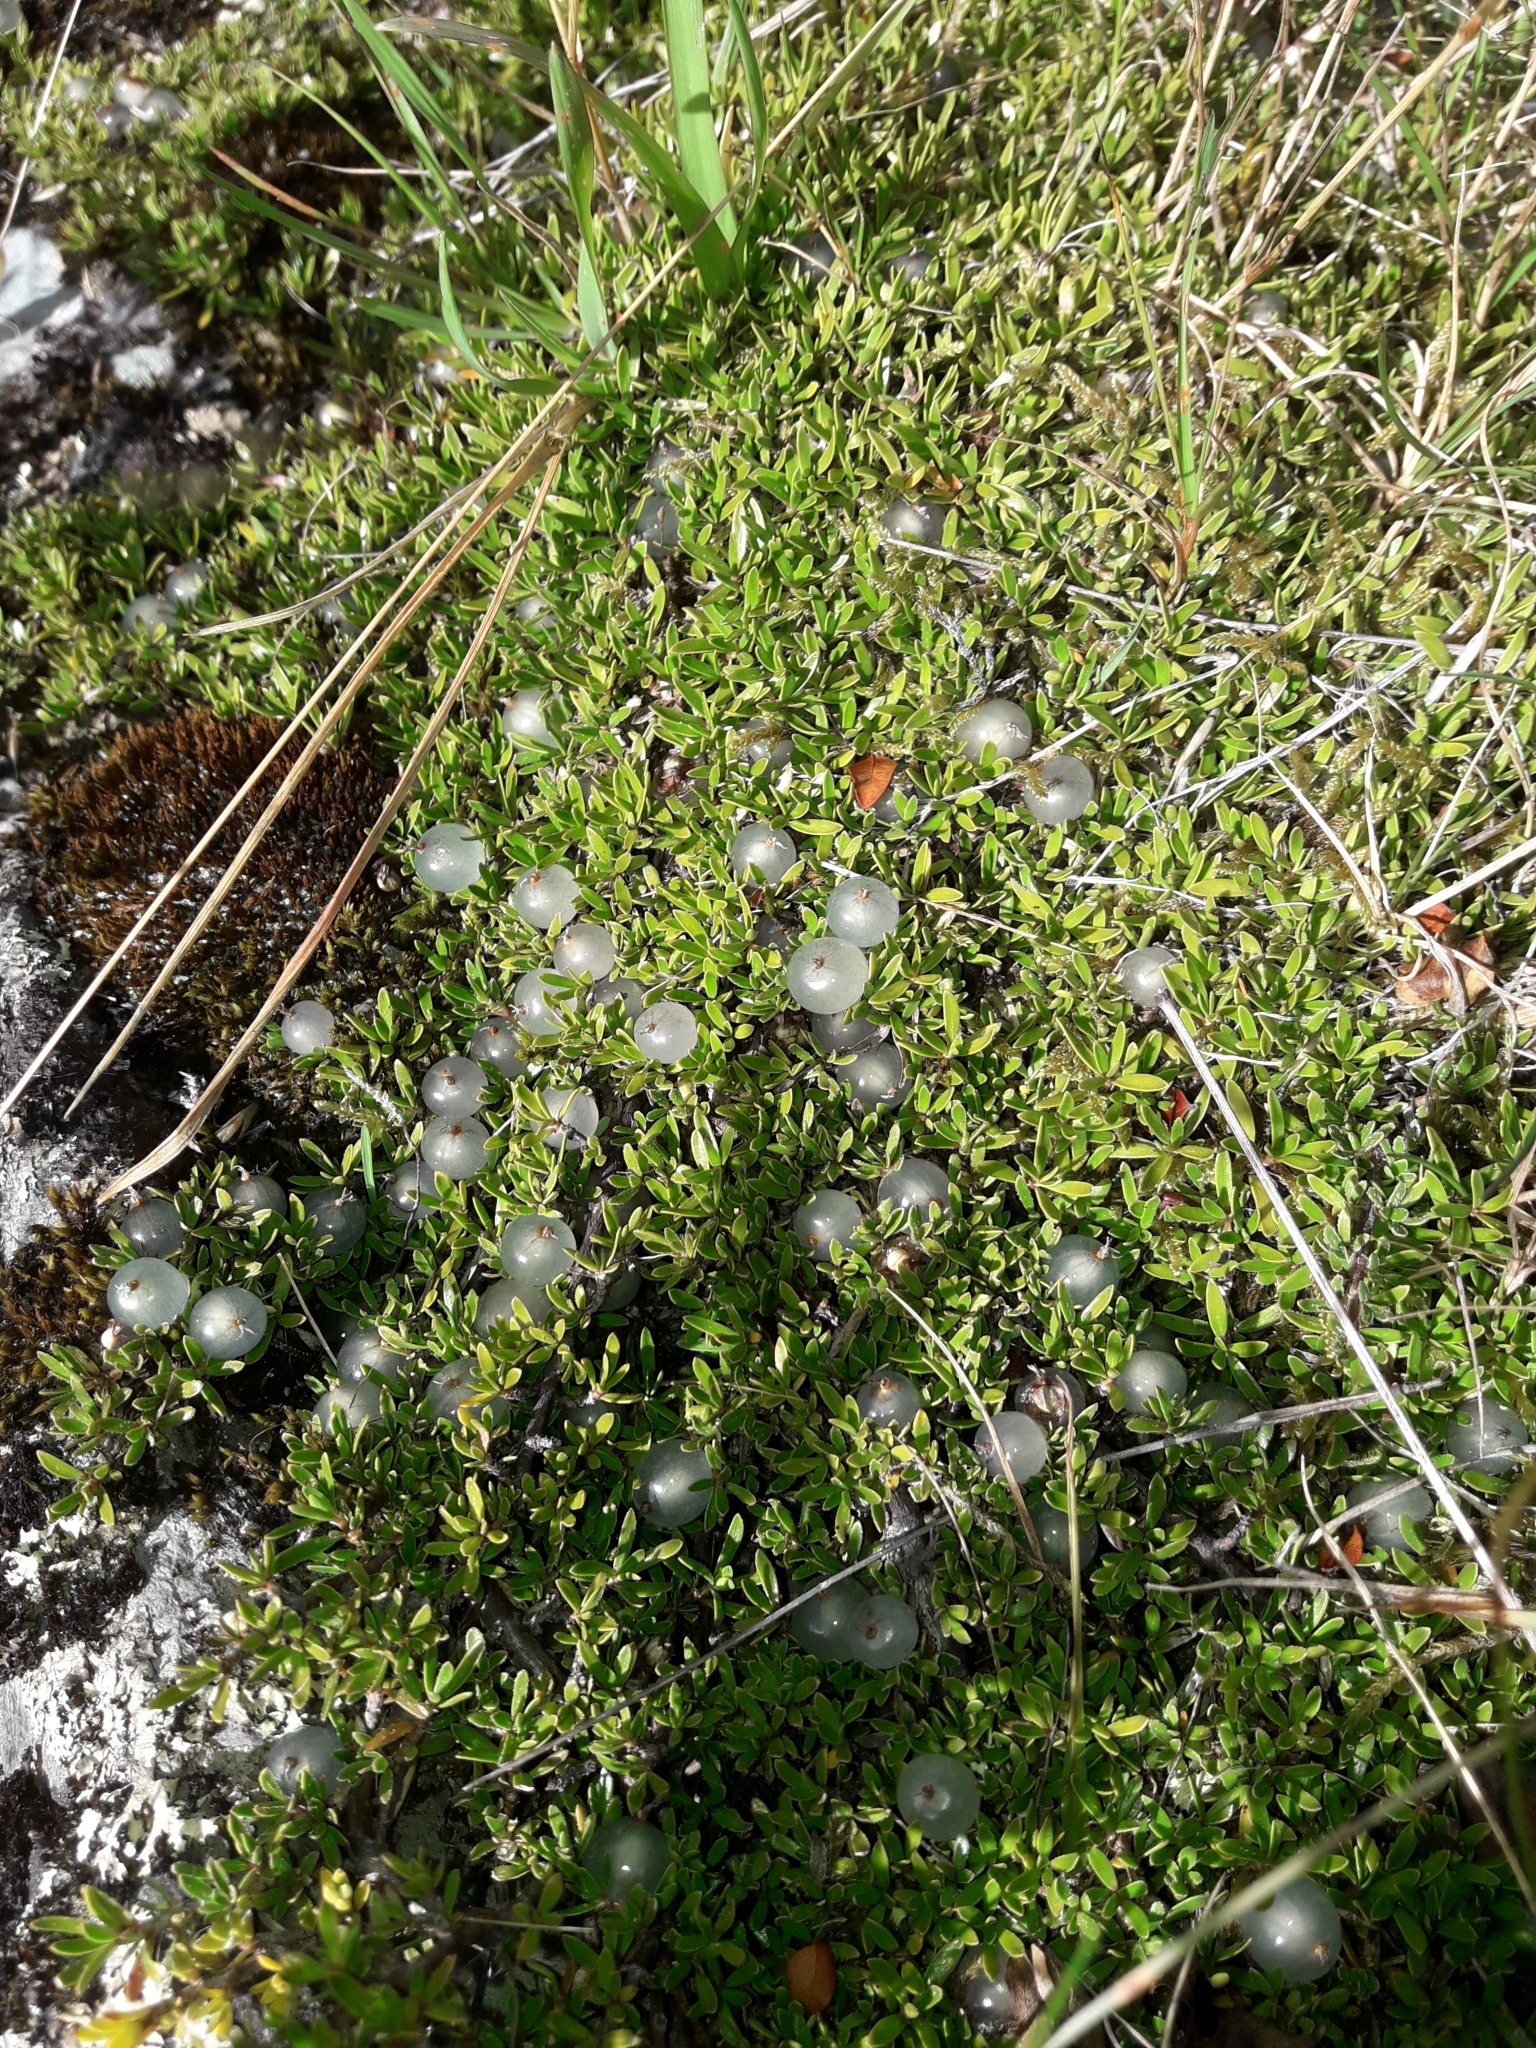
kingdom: Plantae
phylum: Tracheophyta
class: Magnoliopsida
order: Gentianales
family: Rubiaceae
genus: Coprosma
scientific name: Coprosma petriei
